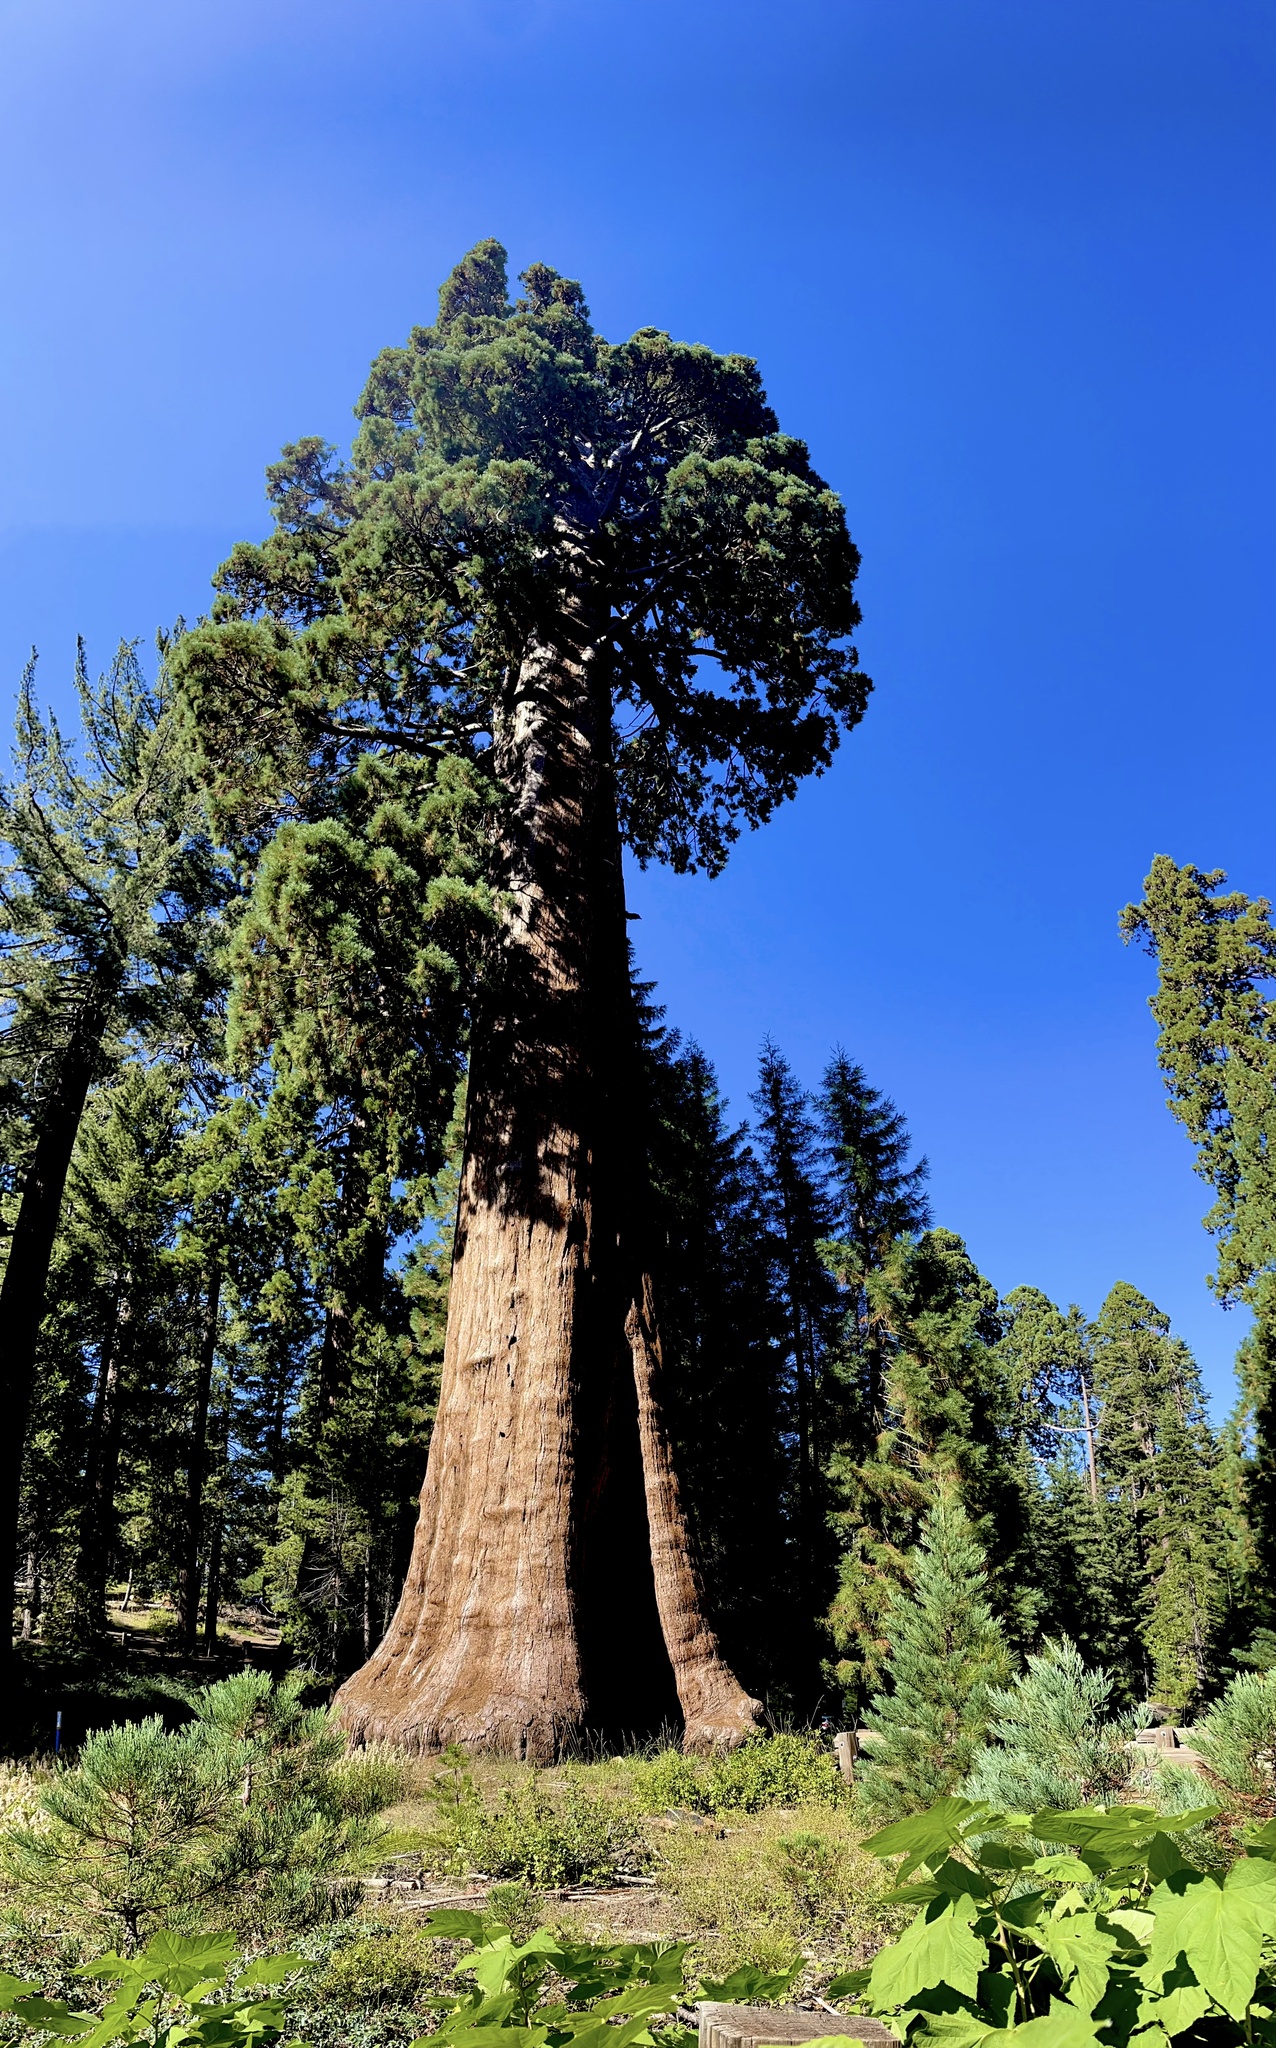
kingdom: Plantae
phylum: Tracheophyta
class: Pinopsida
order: Pinales
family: Cupressaceae
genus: Sequoiadendron
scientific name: Sequoiadendron giganteum
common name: Wellingtonia
